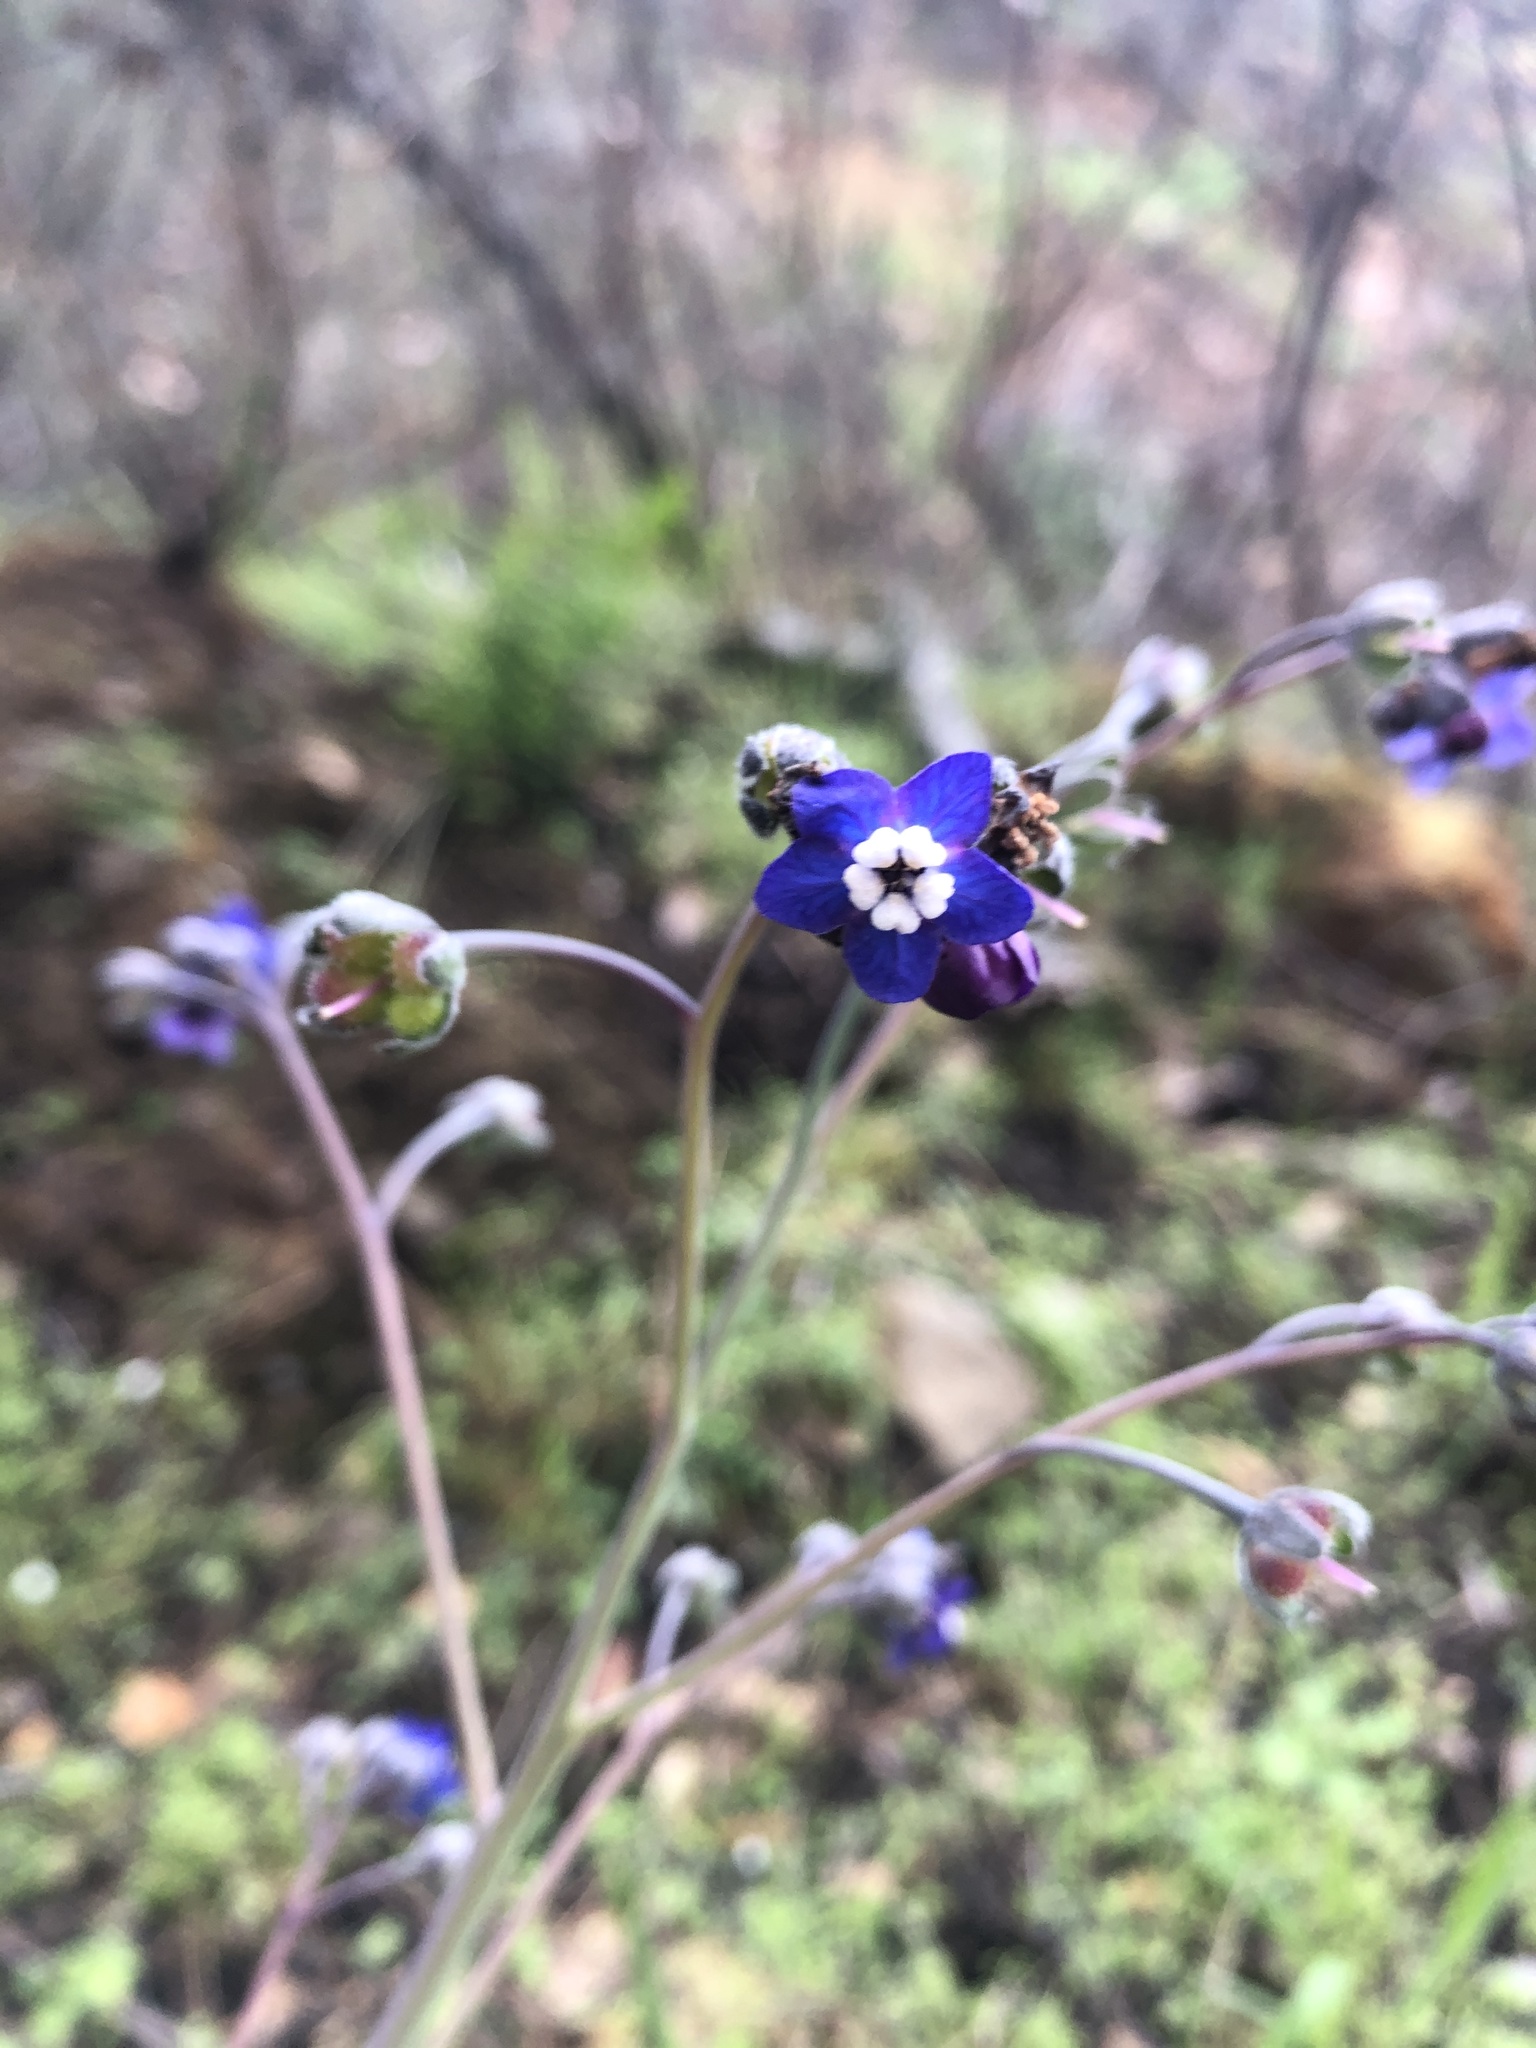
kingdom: Plantae
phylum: Tracheophyta
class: Magnoliopsida
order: Boraginales
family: Boraginaceae
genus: Adelinia
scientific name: Adelinia grande
